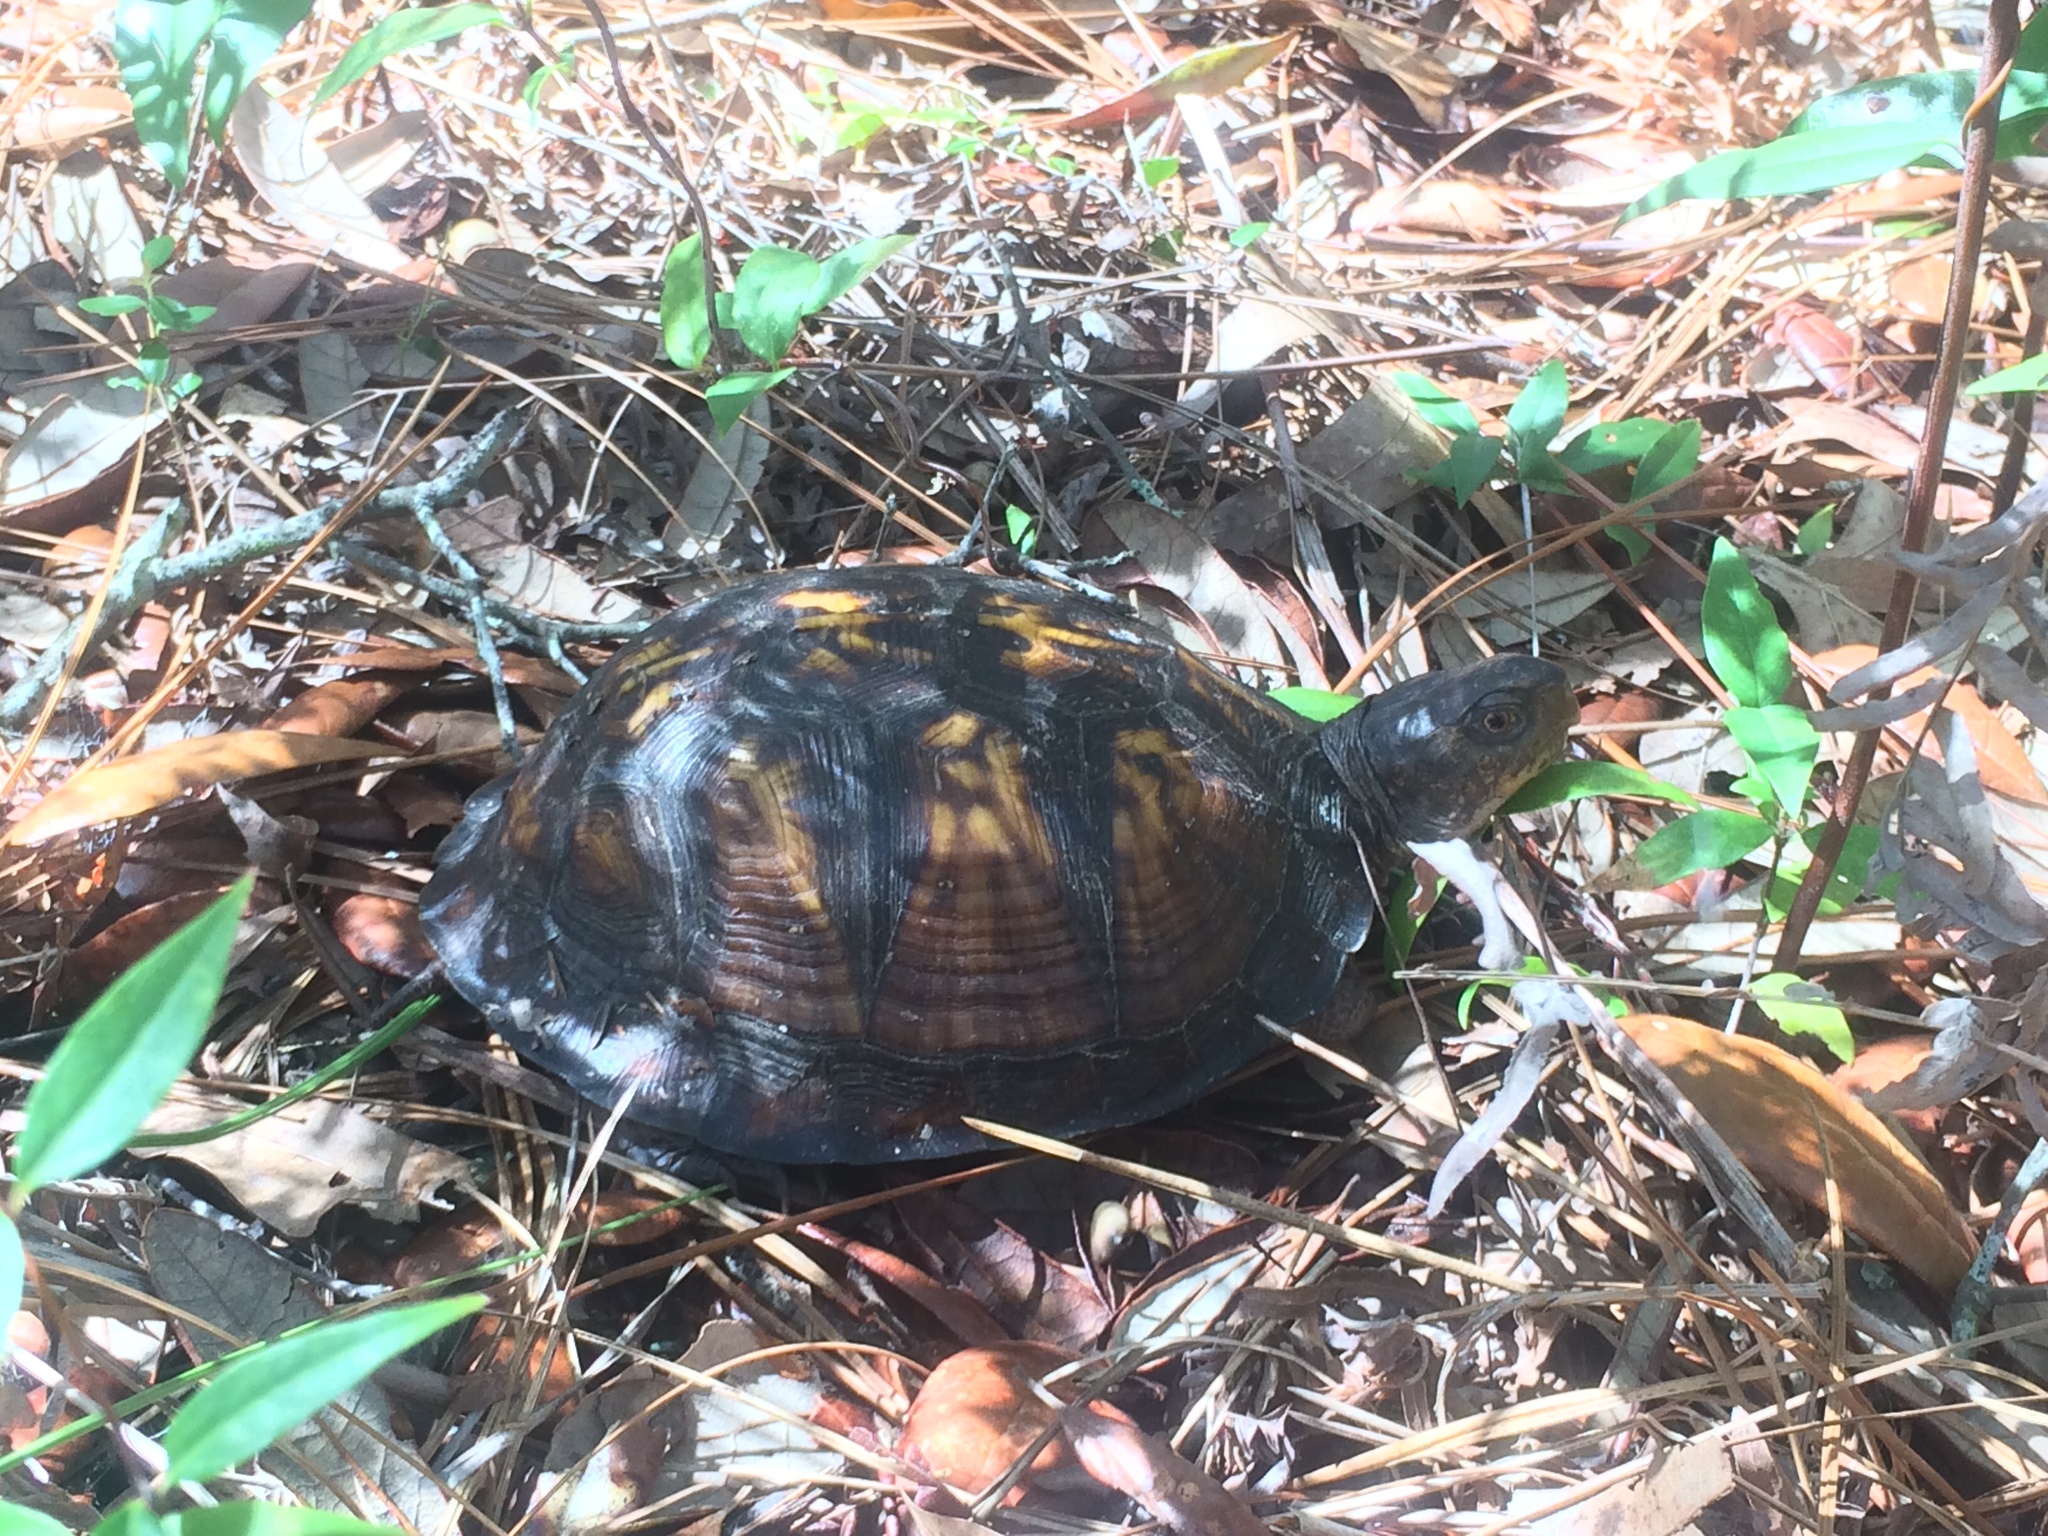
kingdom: Animalia
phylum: Chordata
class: Testudines
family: Emydidae
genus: Terrapene
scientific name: Terrapene carolina
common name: Common box turtle
